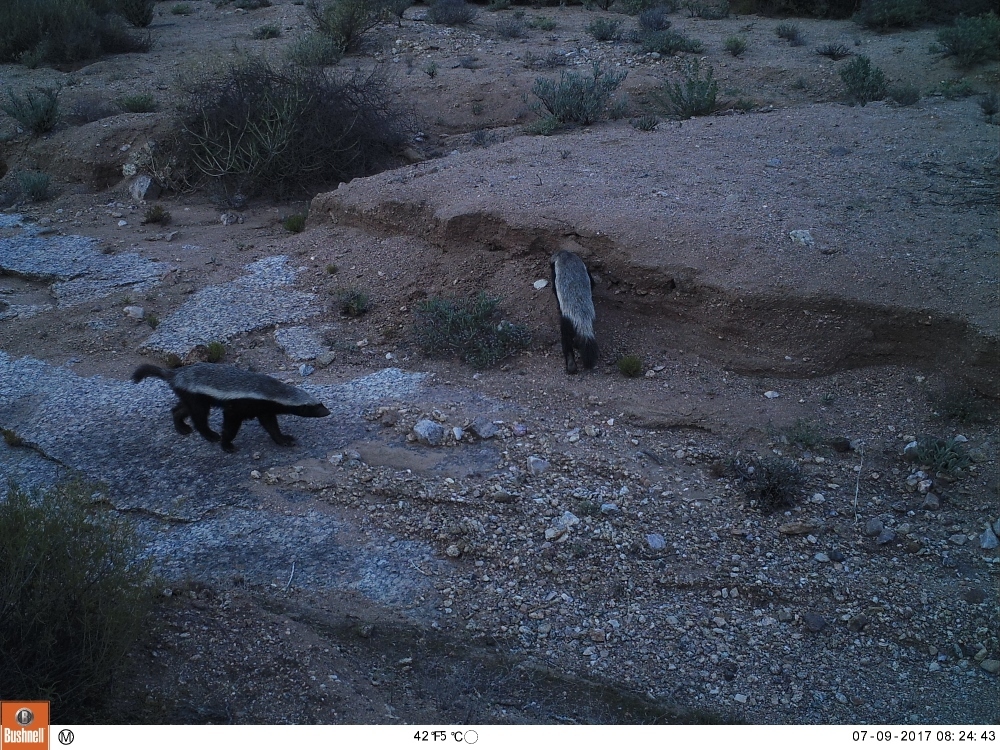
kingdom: Animalia
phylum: Chordata
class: Mammalia
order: Carnivora
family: Mustelidae
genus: Mellivora
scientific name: Mellivora capensis
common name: Honey badger
